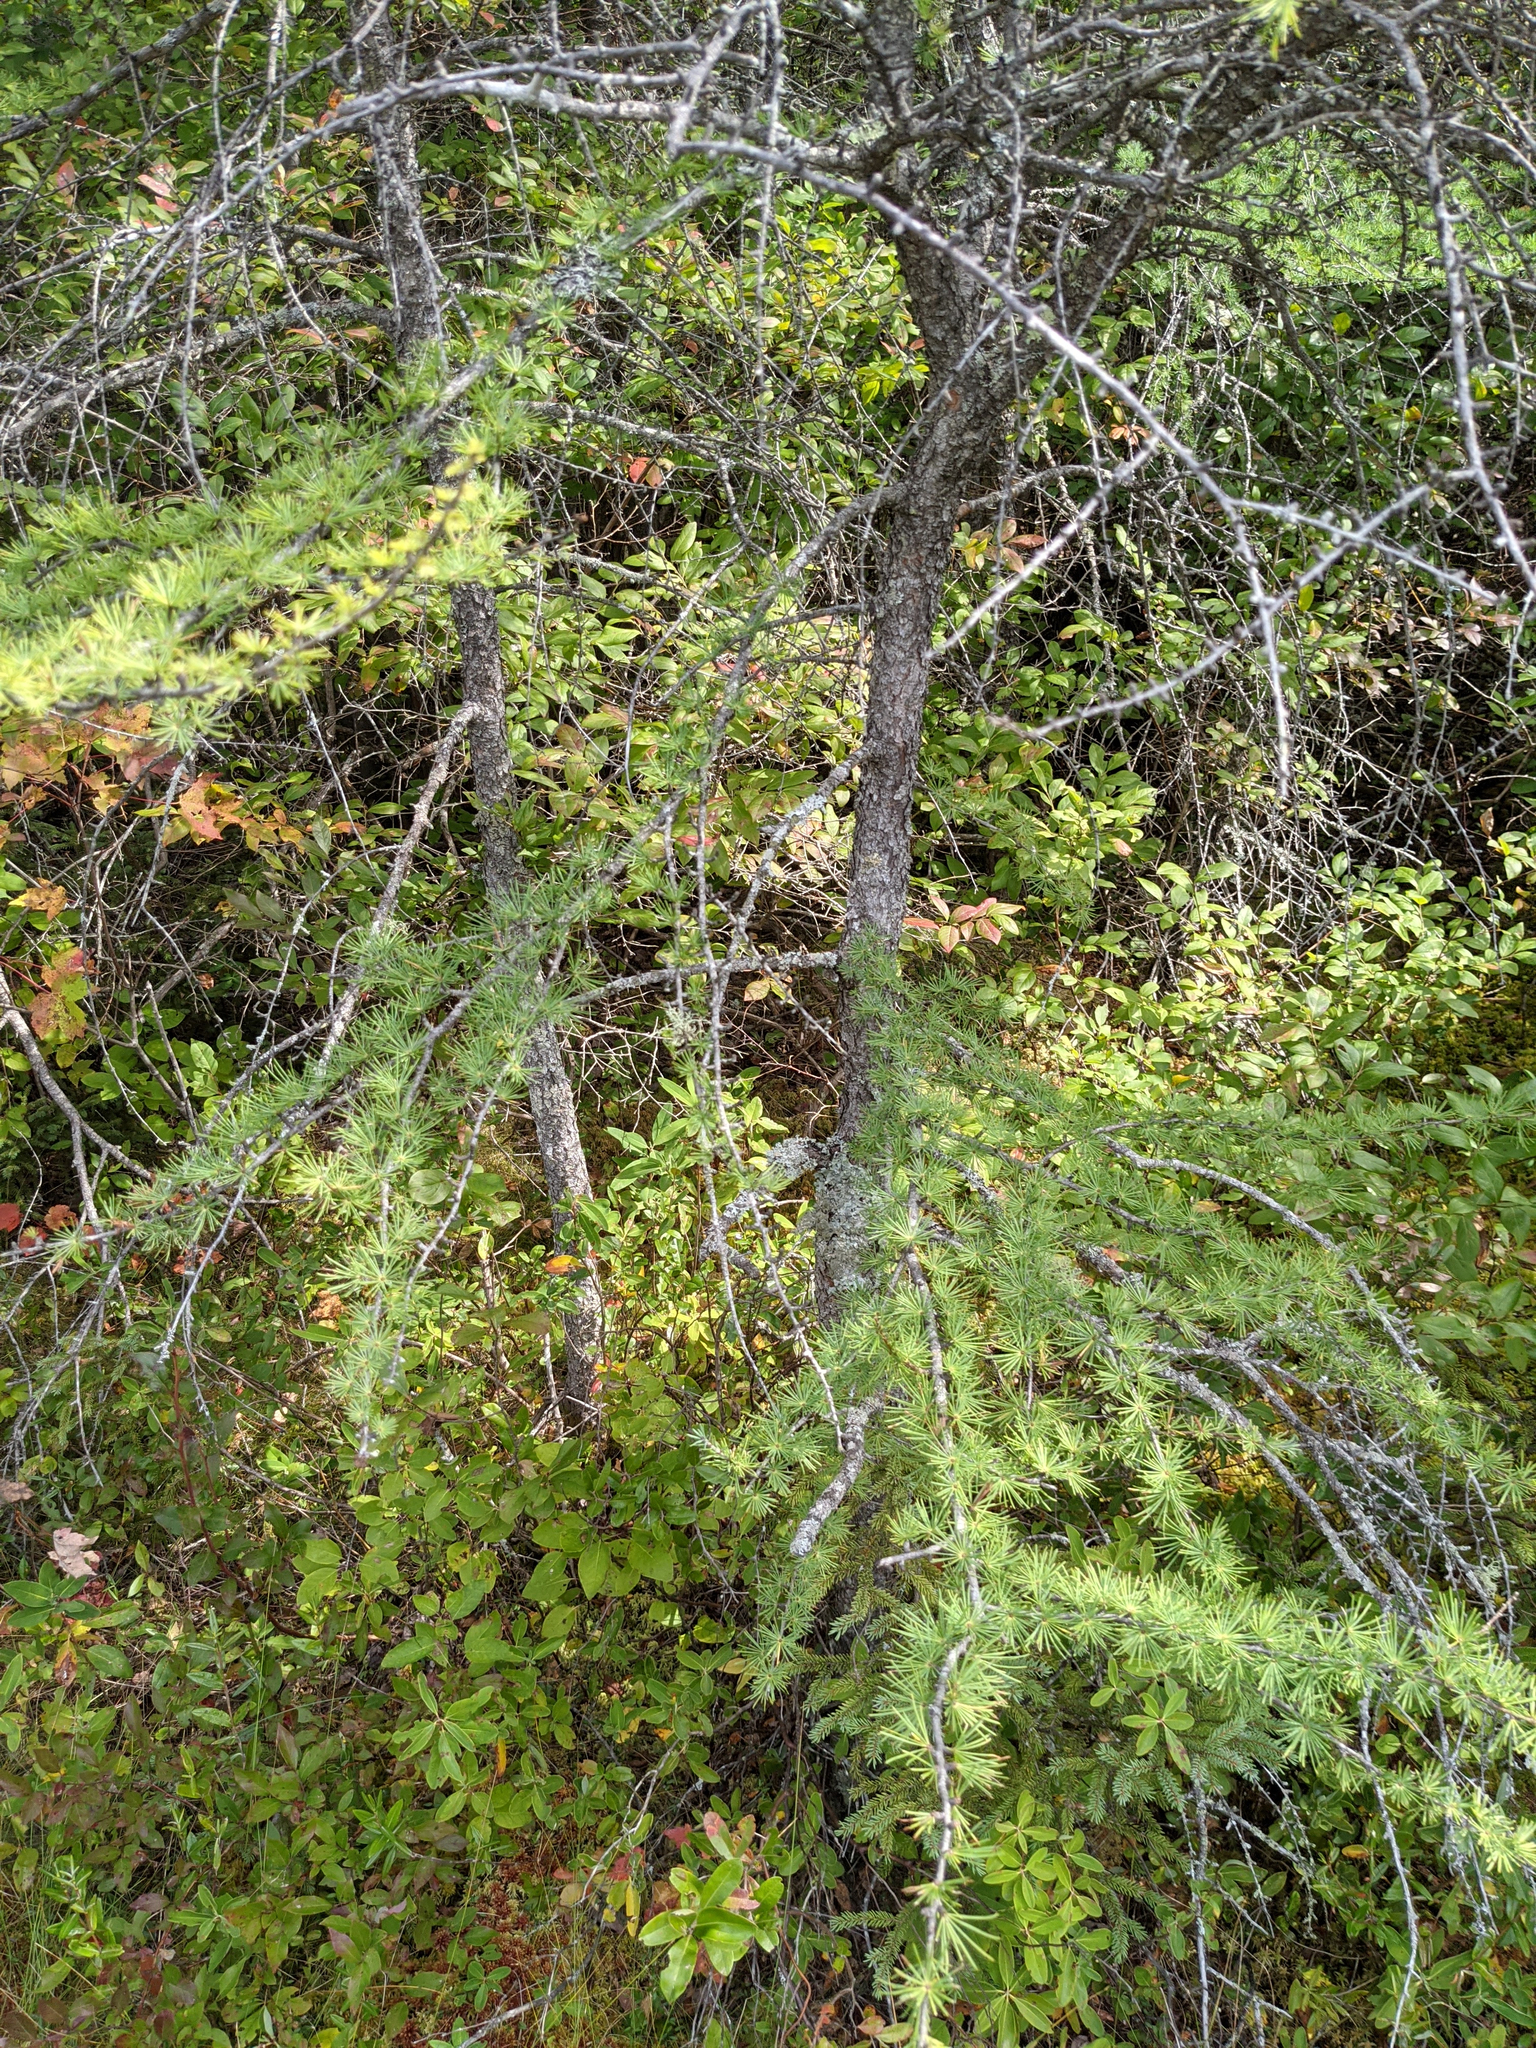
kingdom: Plantae
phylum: Tracheophyta
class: Pinopsida
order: Pinales
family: Pinaceae
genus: Larix
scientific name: Larix laricina
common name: American larch
